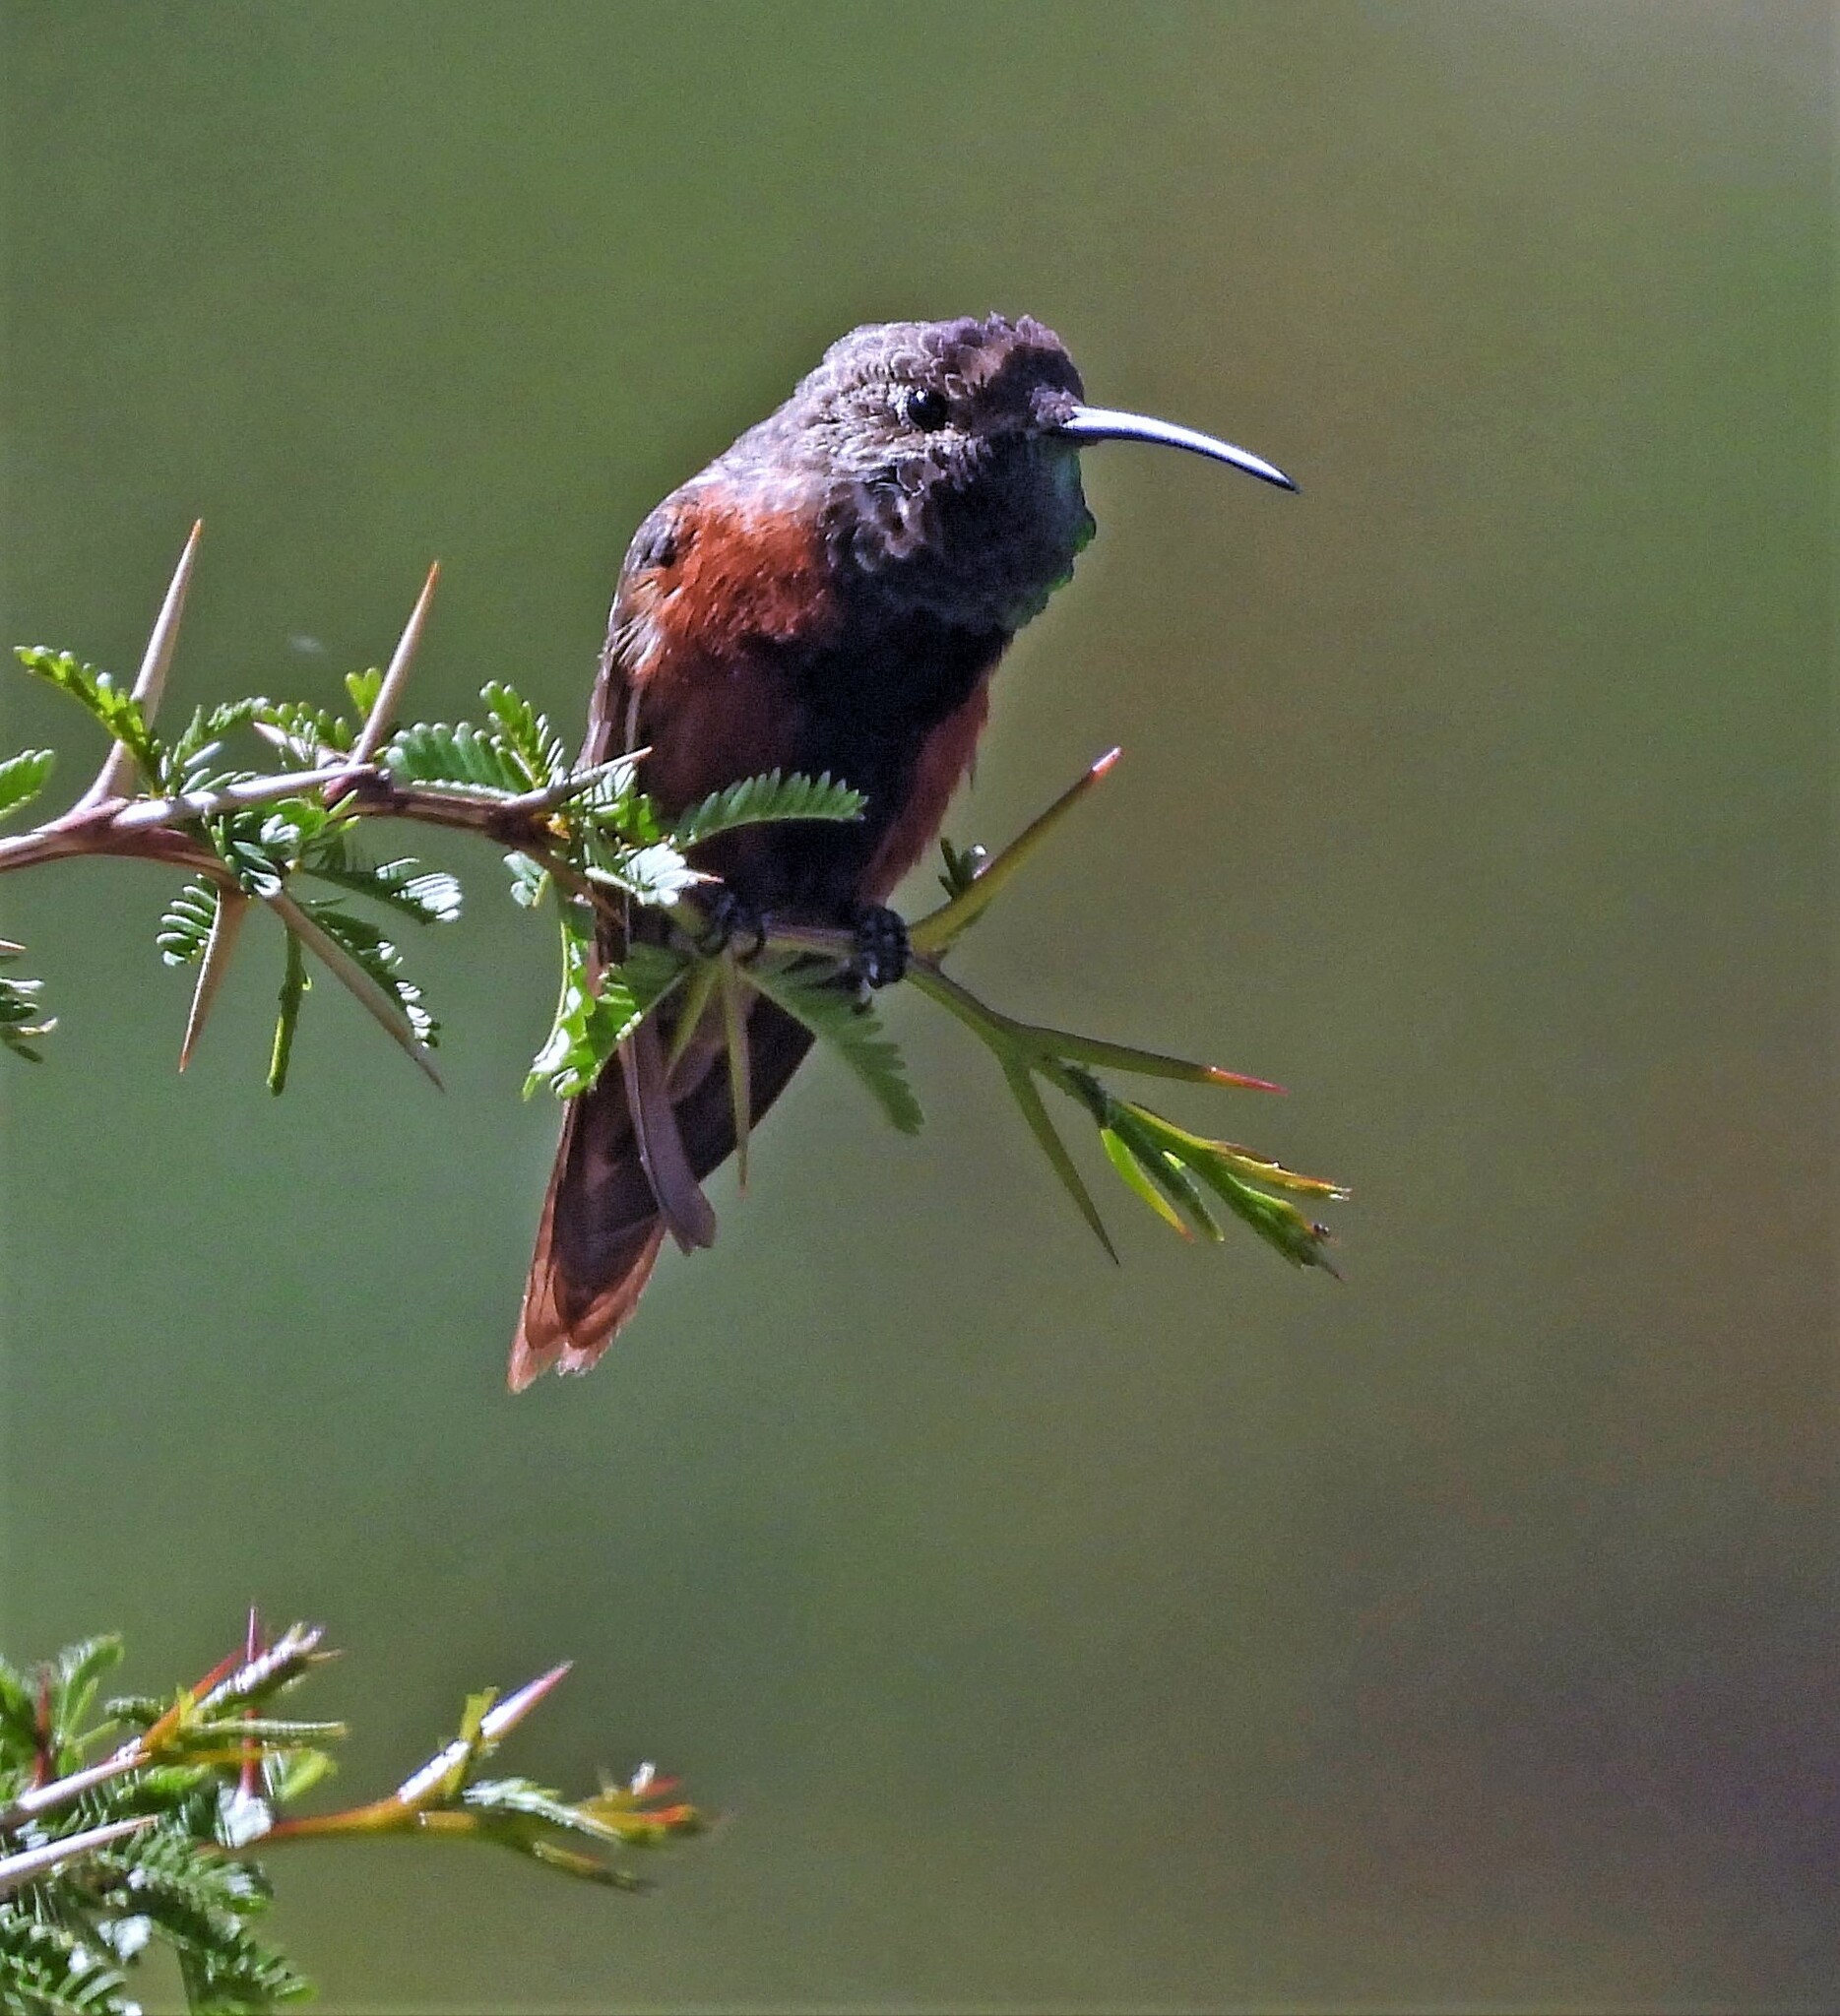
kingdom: Animalia
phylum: Chordata
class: Aves
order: Apodiformes
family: Trochilidae
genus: Oreotrochilus
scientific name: Oreotrochilus adela
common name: Wedge-tailed hillstar
